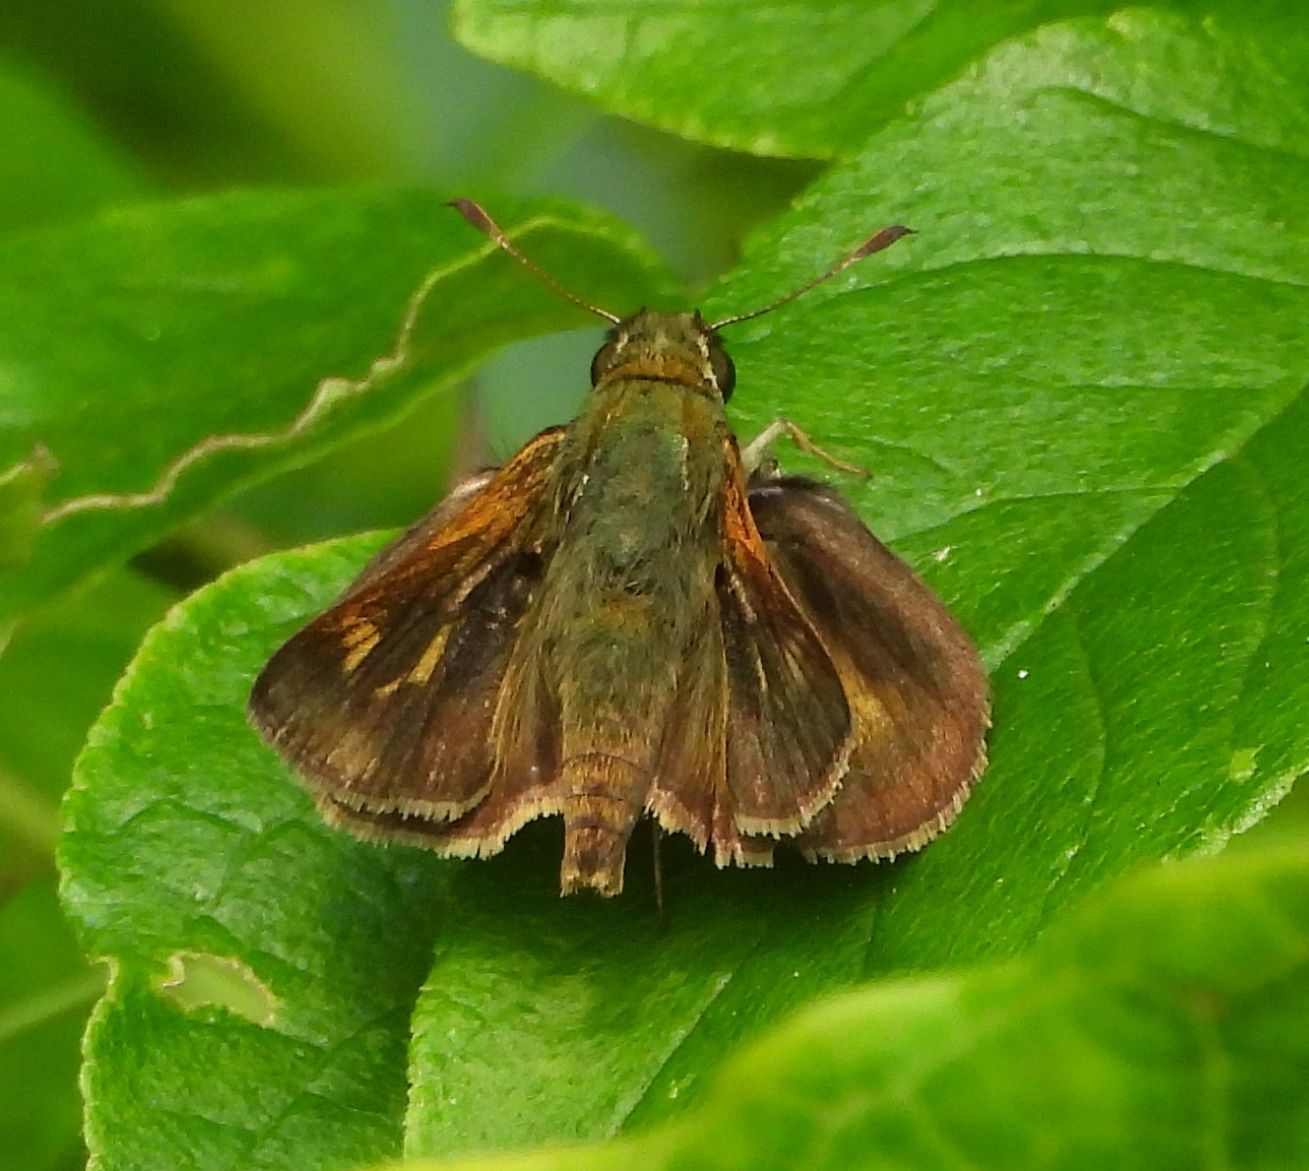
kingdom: Animalia
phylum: Arthropoda
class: Insecta
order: Lepidoptera
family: Hesperiidae
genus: Polites
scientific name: Polites egeremet
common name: Northern broken-dash
